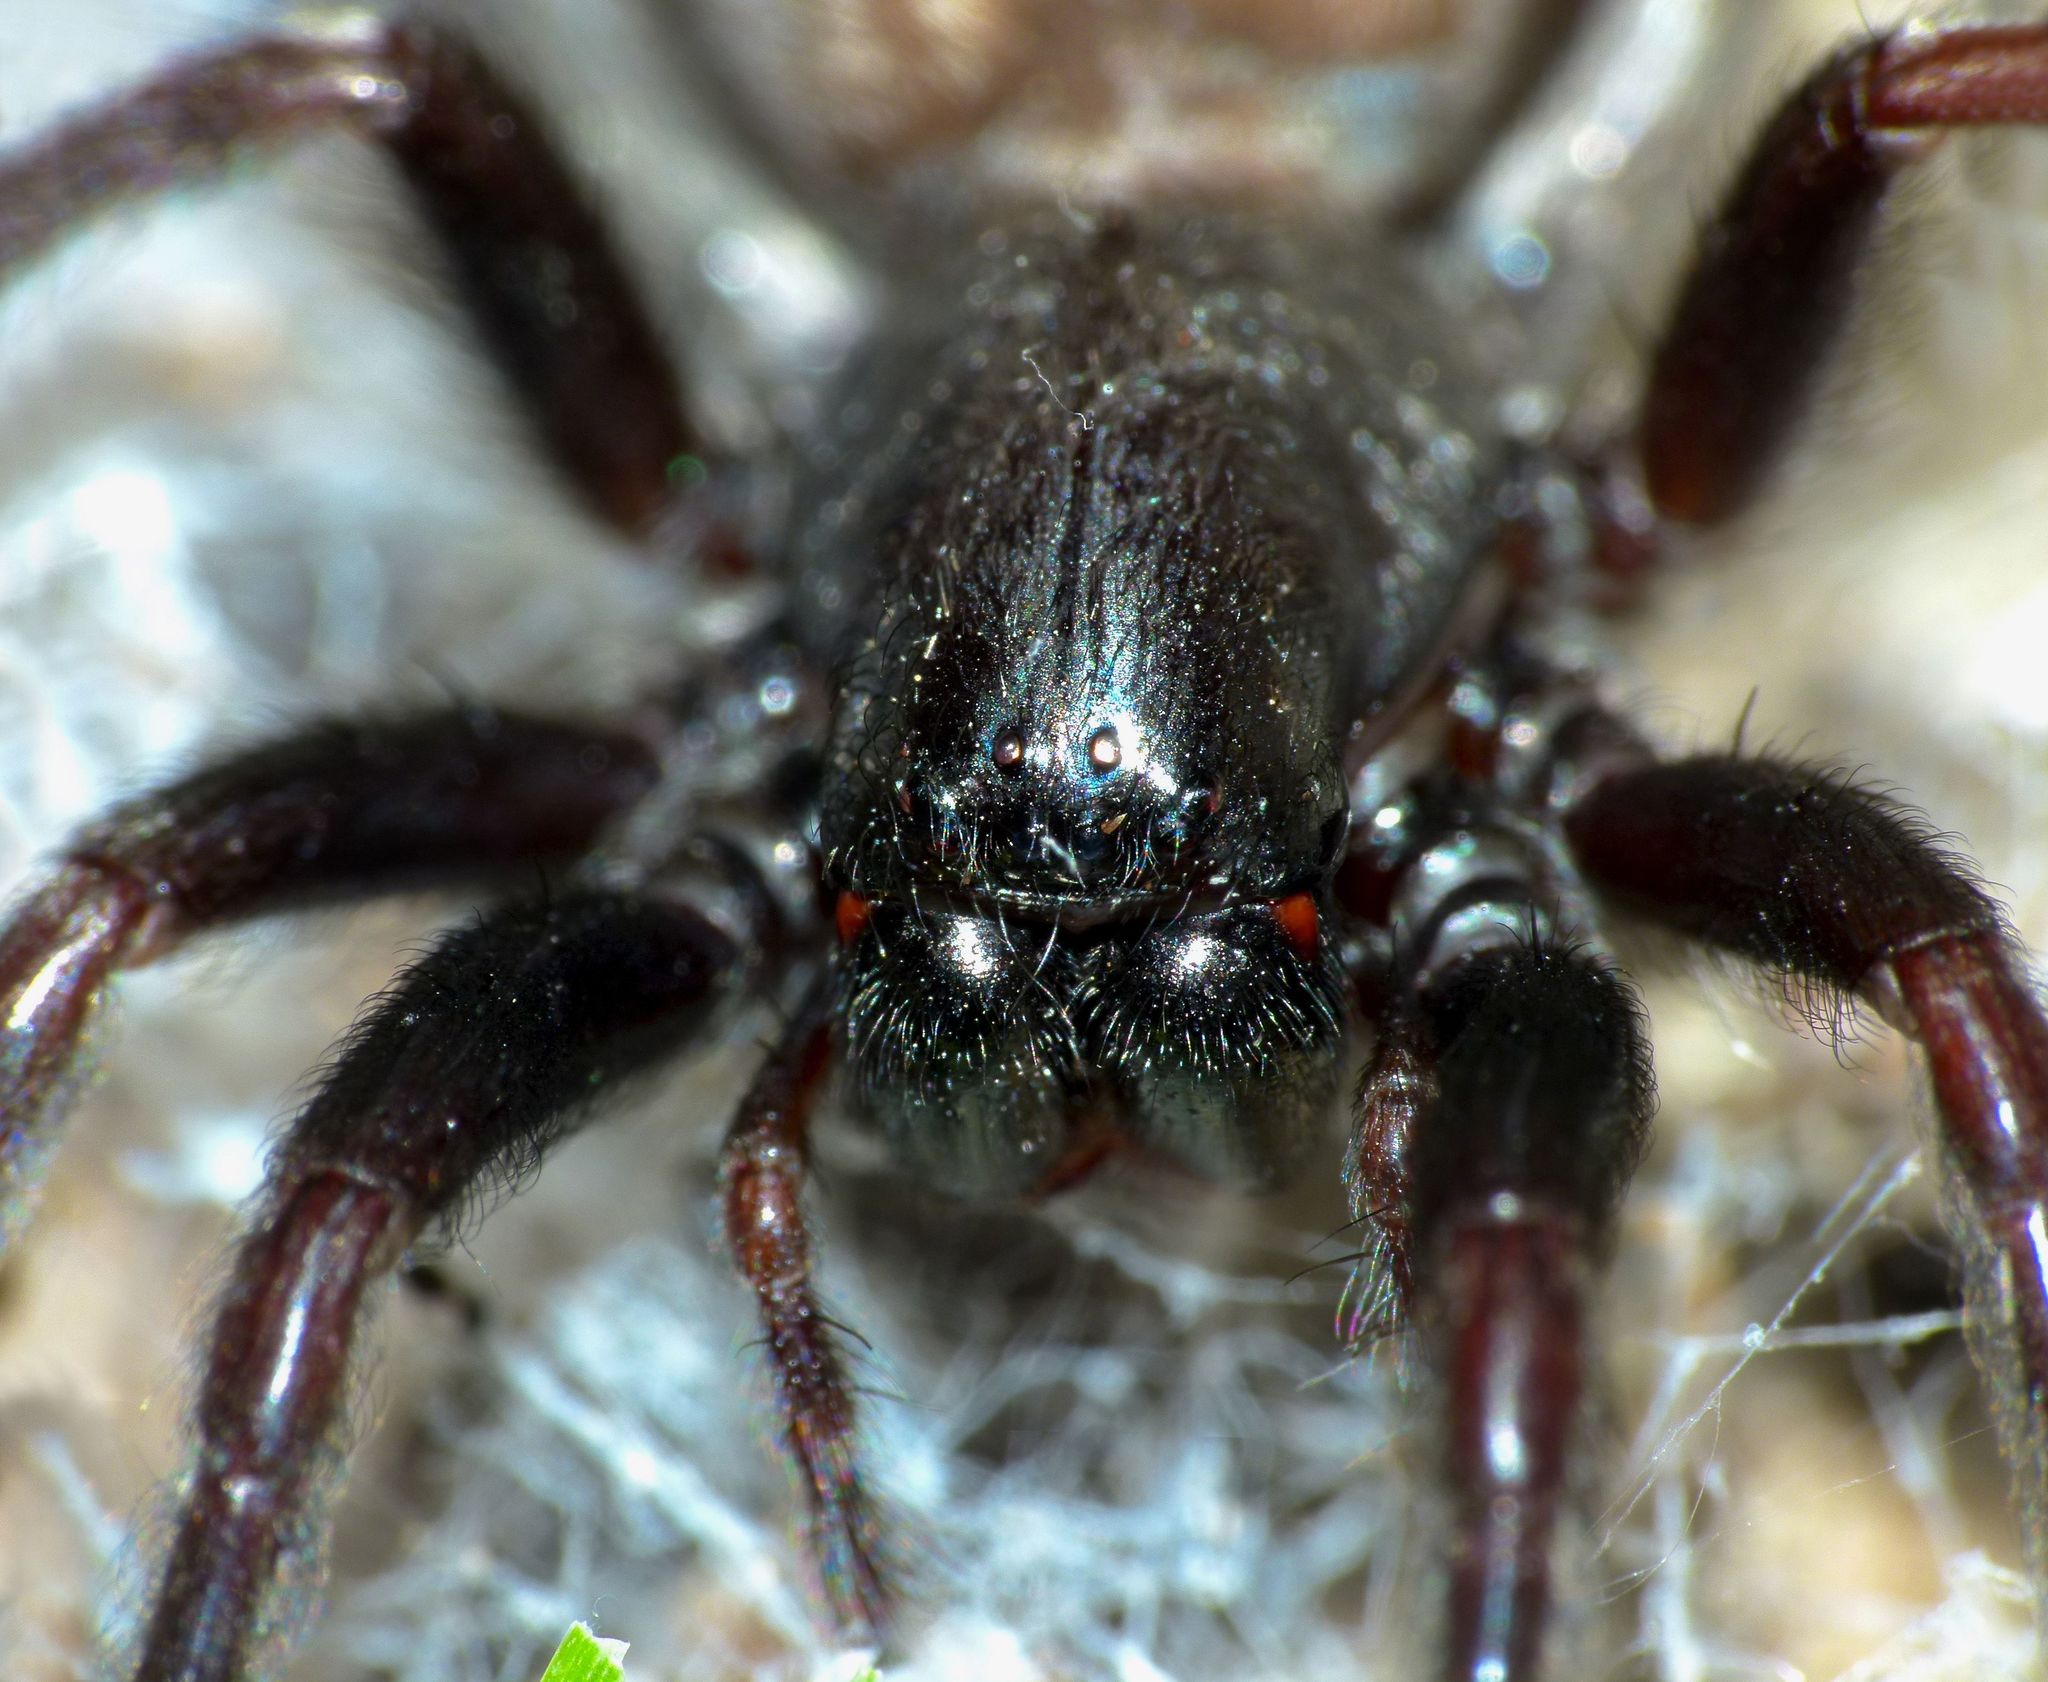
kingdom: Animalia
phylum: Arthropoda
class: Arachnida
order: Araneae
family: Desidae
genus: Badumna
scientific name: Badumna insignis
